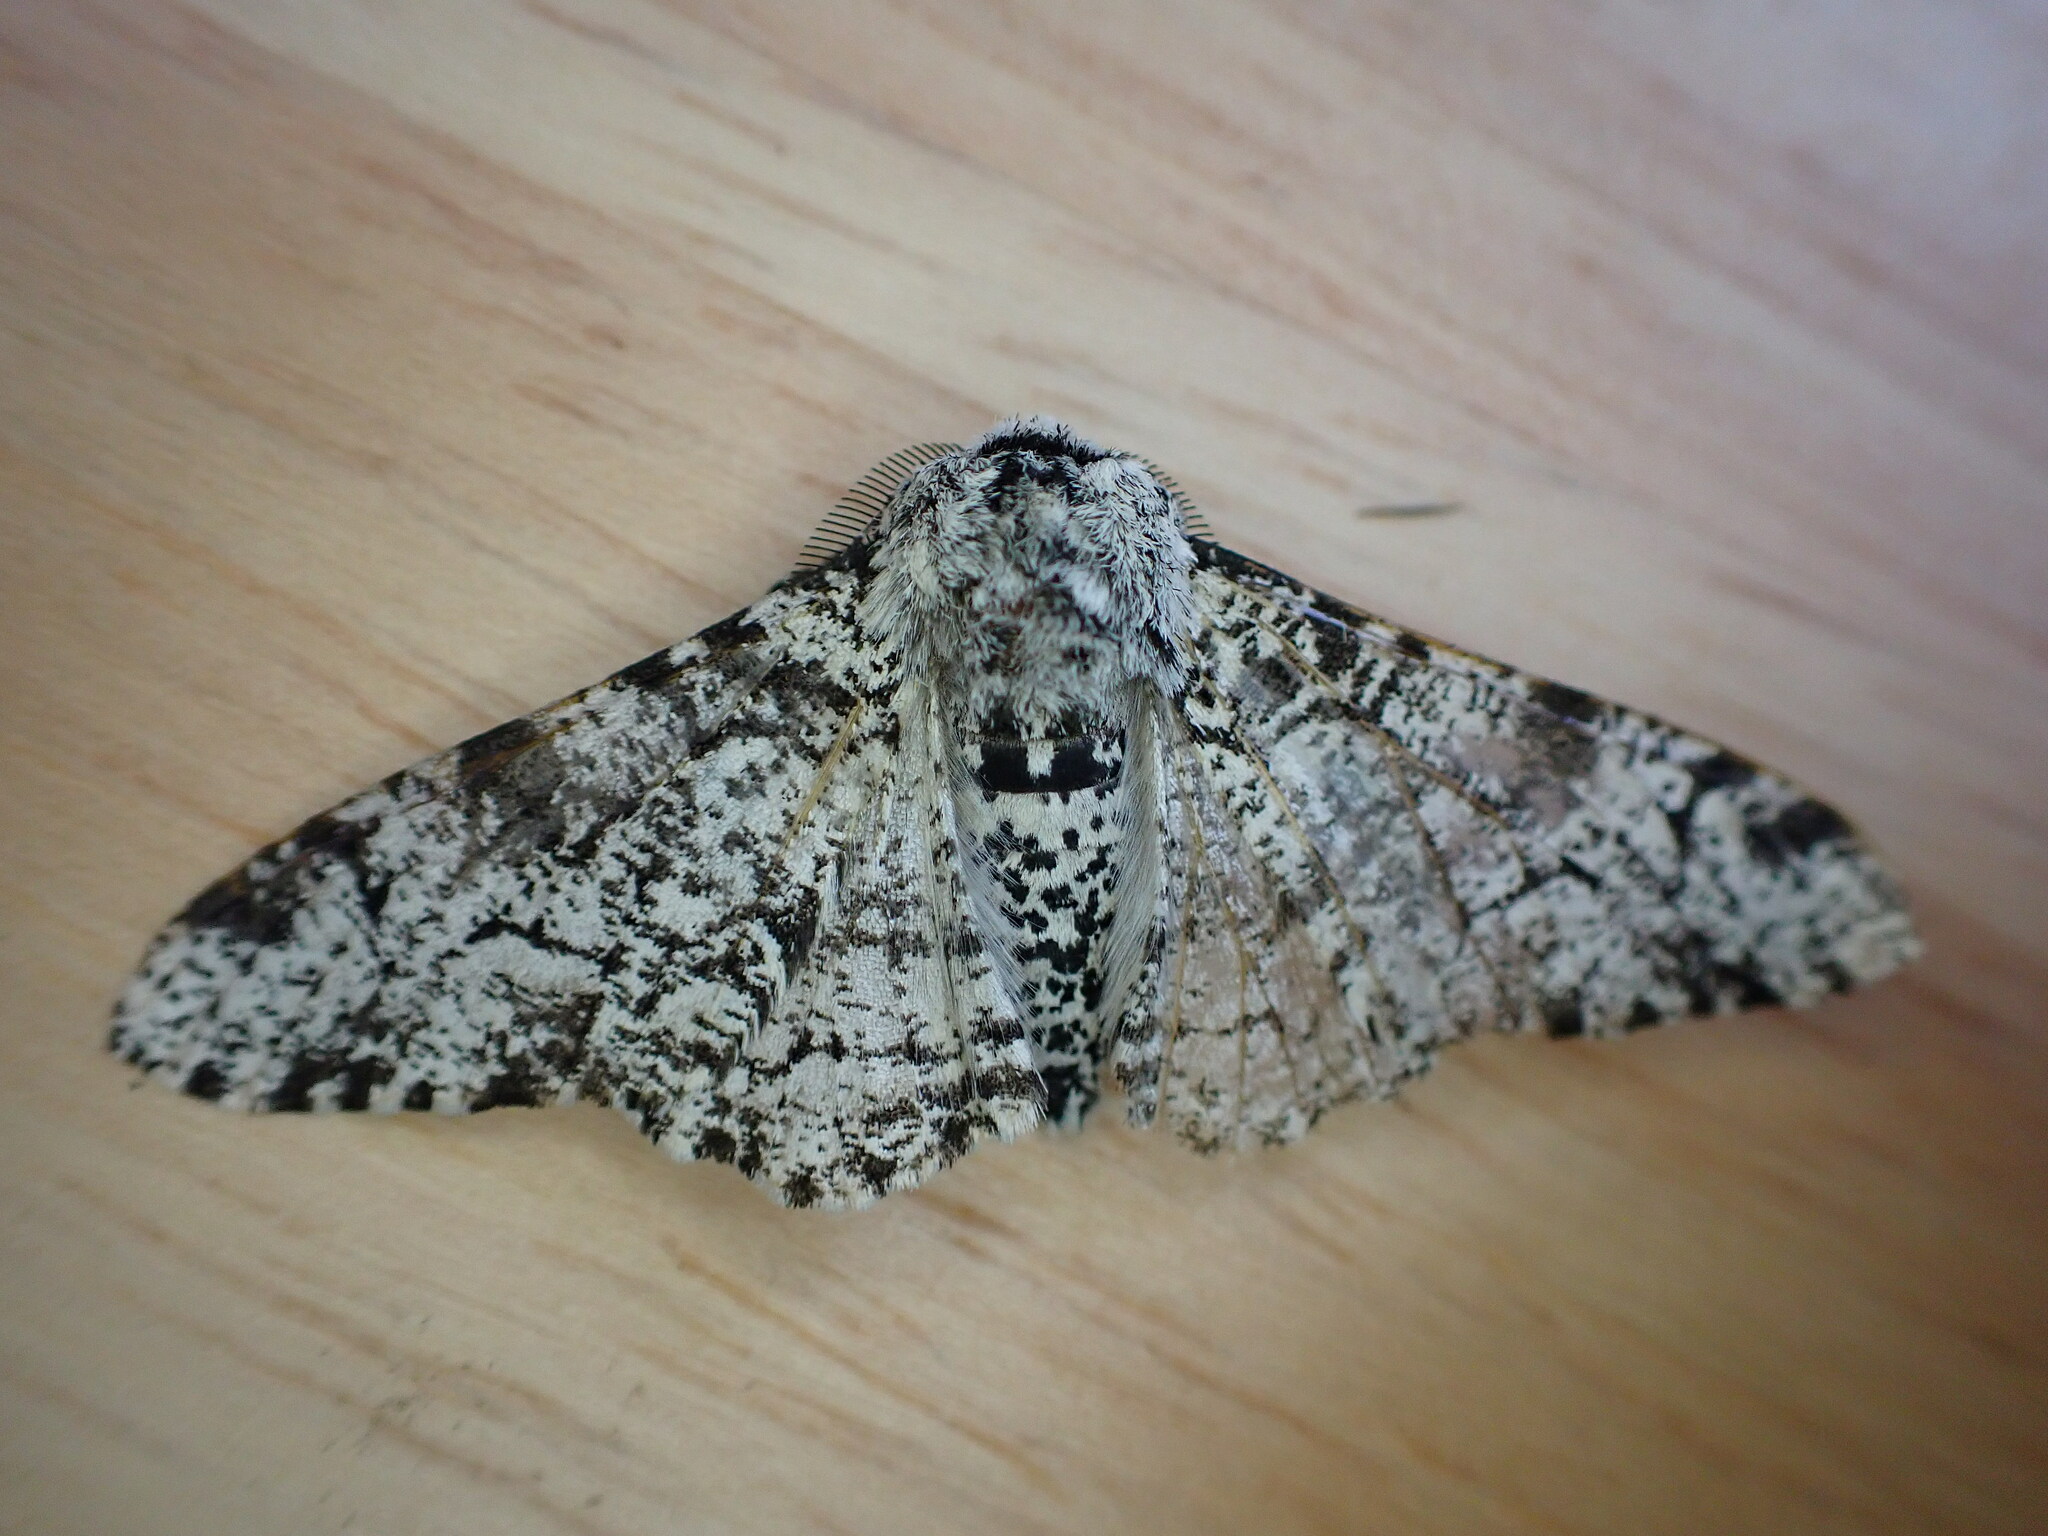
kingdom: Animalia
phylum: Arthropoda
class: Insecta
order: Lepidoptera
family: Geometridae
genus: Biston
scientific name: Biston betularia
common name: Peppered moth
